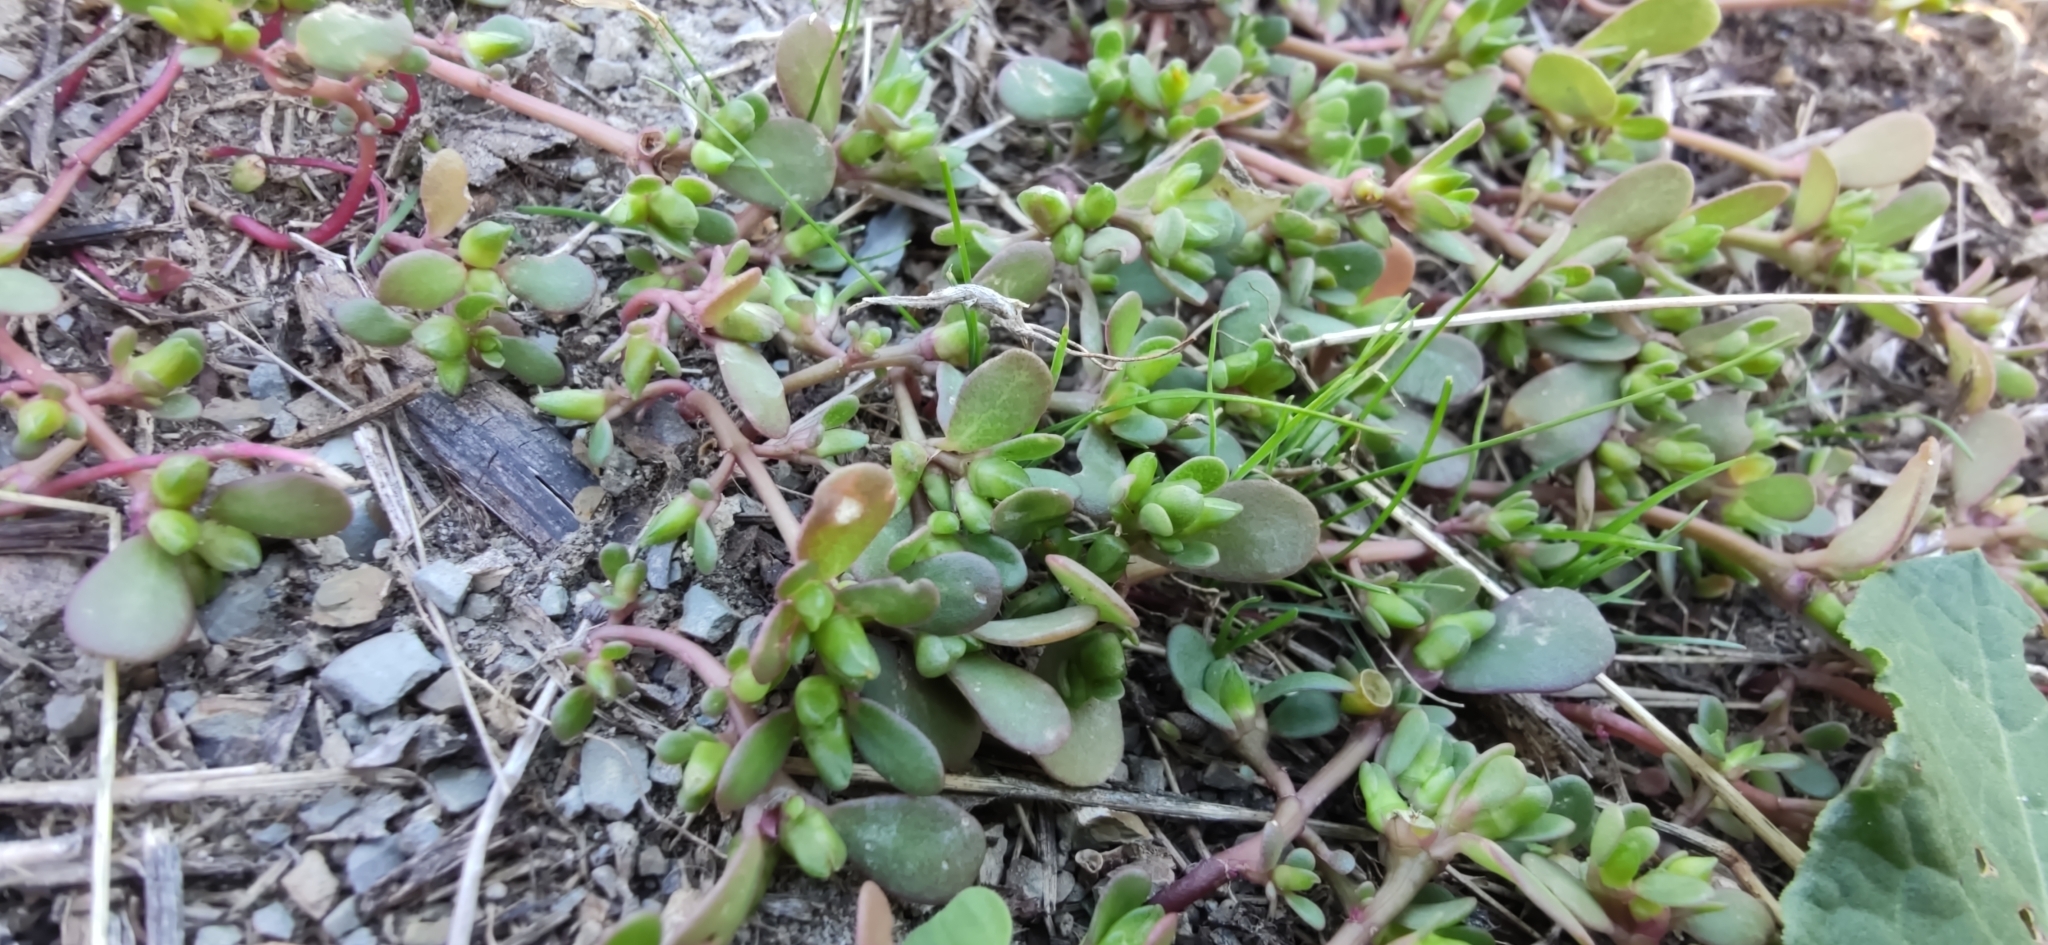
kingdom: Plantae
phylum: Tracheophyta
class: Magnoliopsida
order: Caryophyllales
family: Portulacaceae
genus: Portulaca
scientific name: Portulaca oleracea
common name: Common purslane
